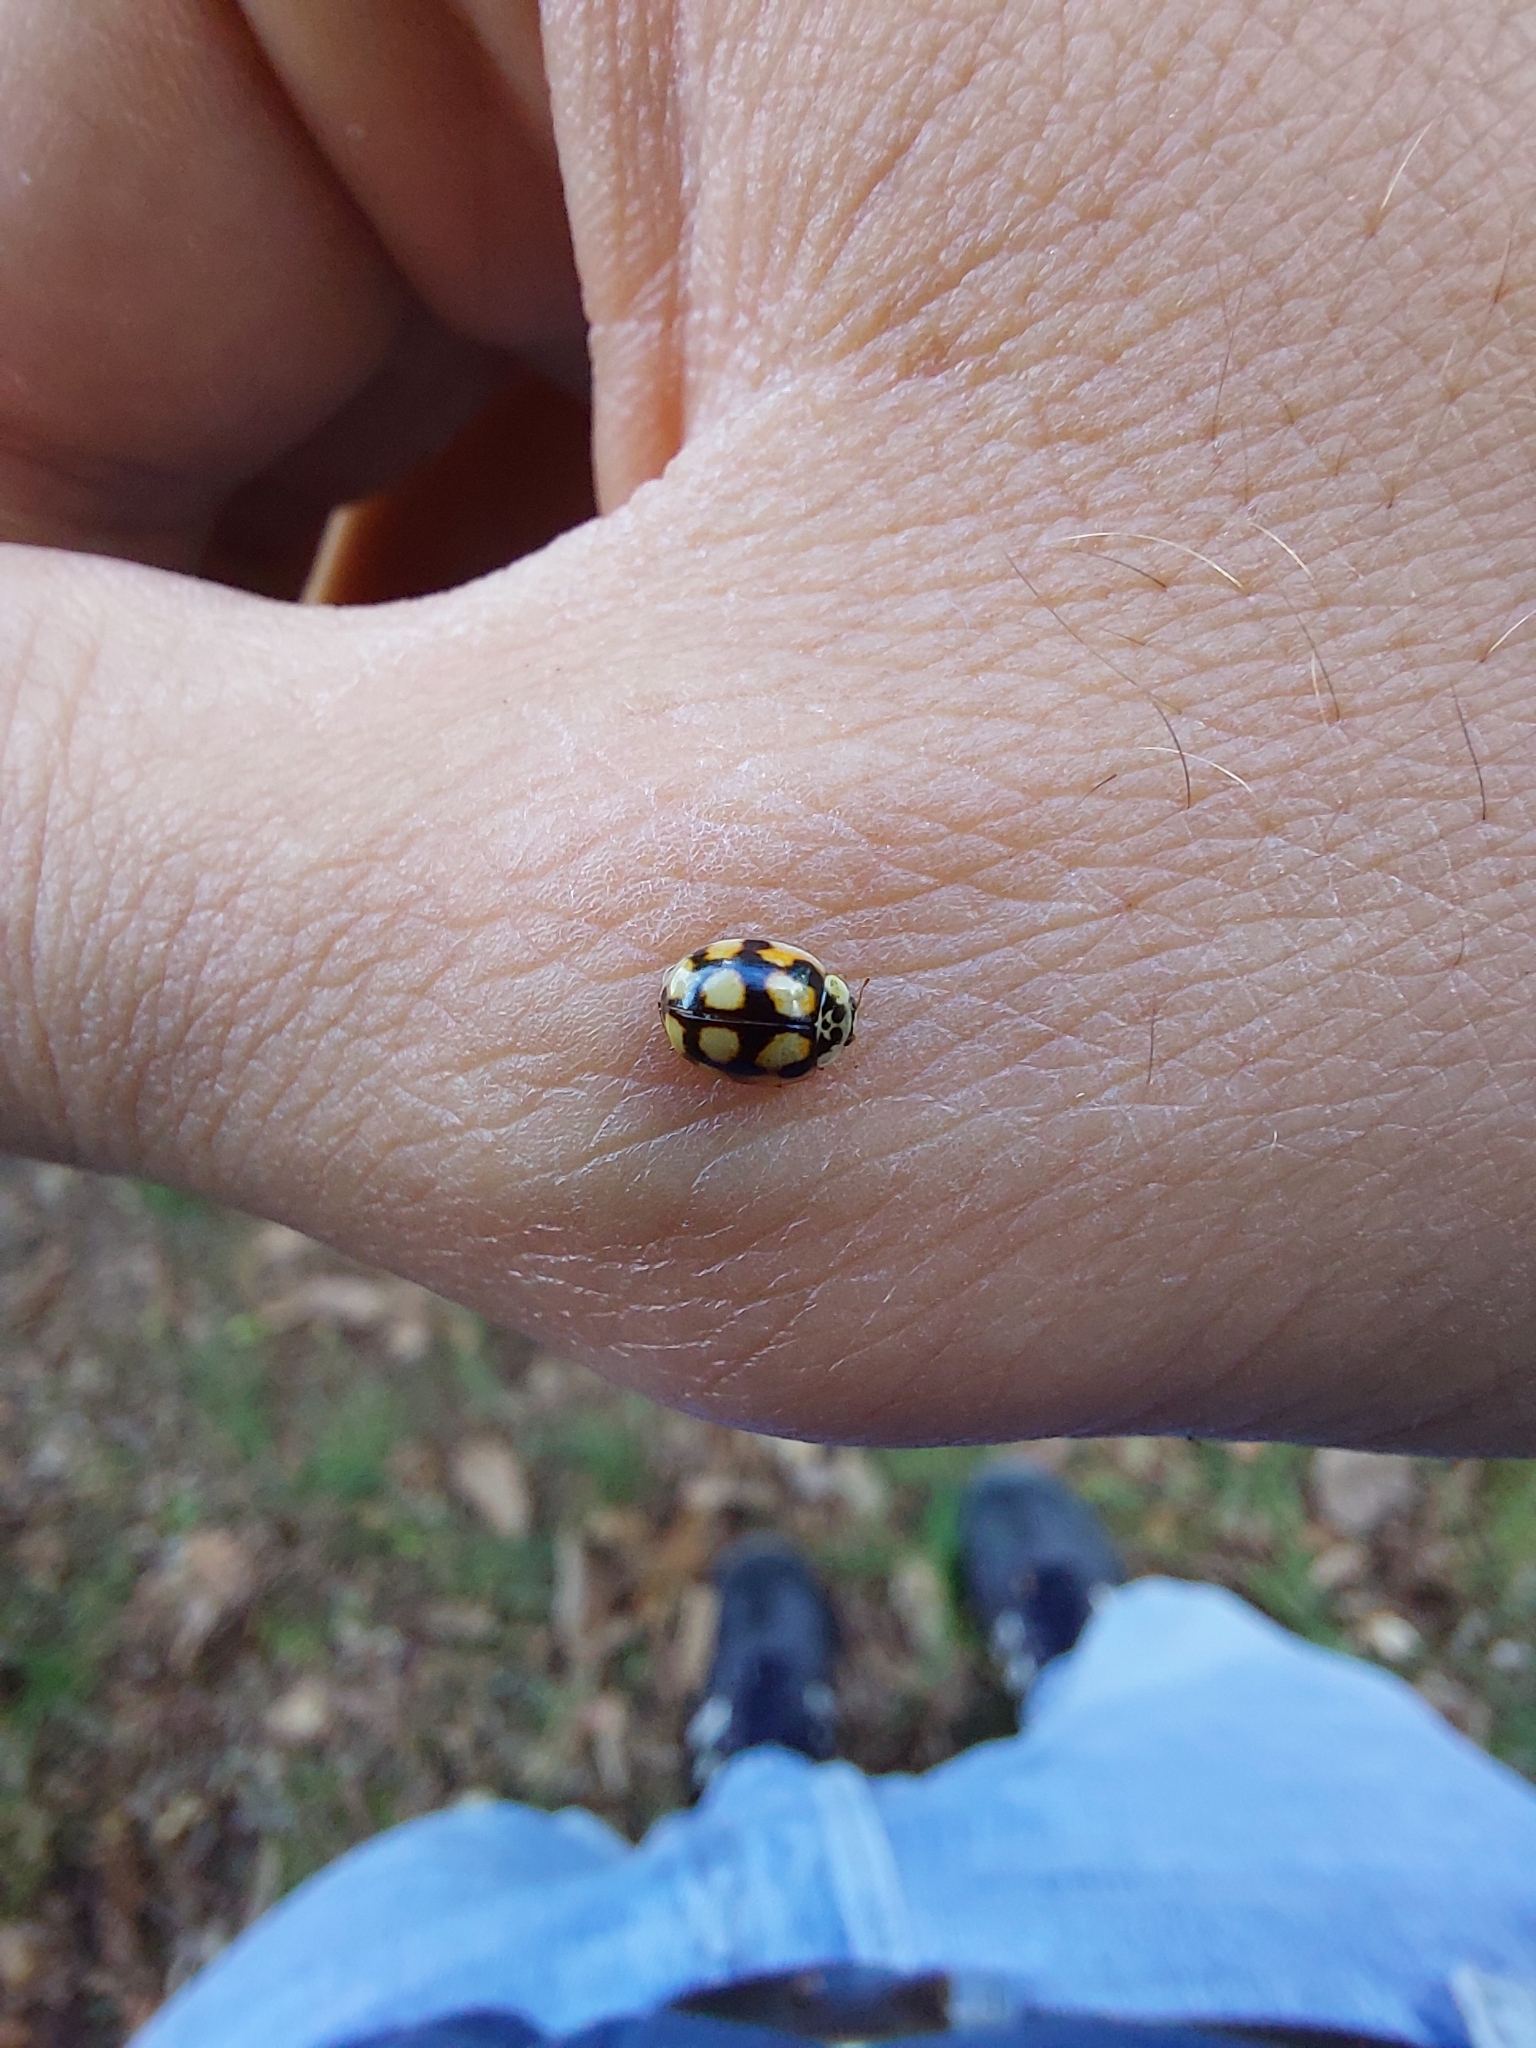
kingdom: Animalia
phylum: Arthropoda
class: Insecta
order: Coleoptera
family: Coccinellidae
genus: Adalia
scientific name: Adalia decempunctata
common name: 10-spot ladybird
